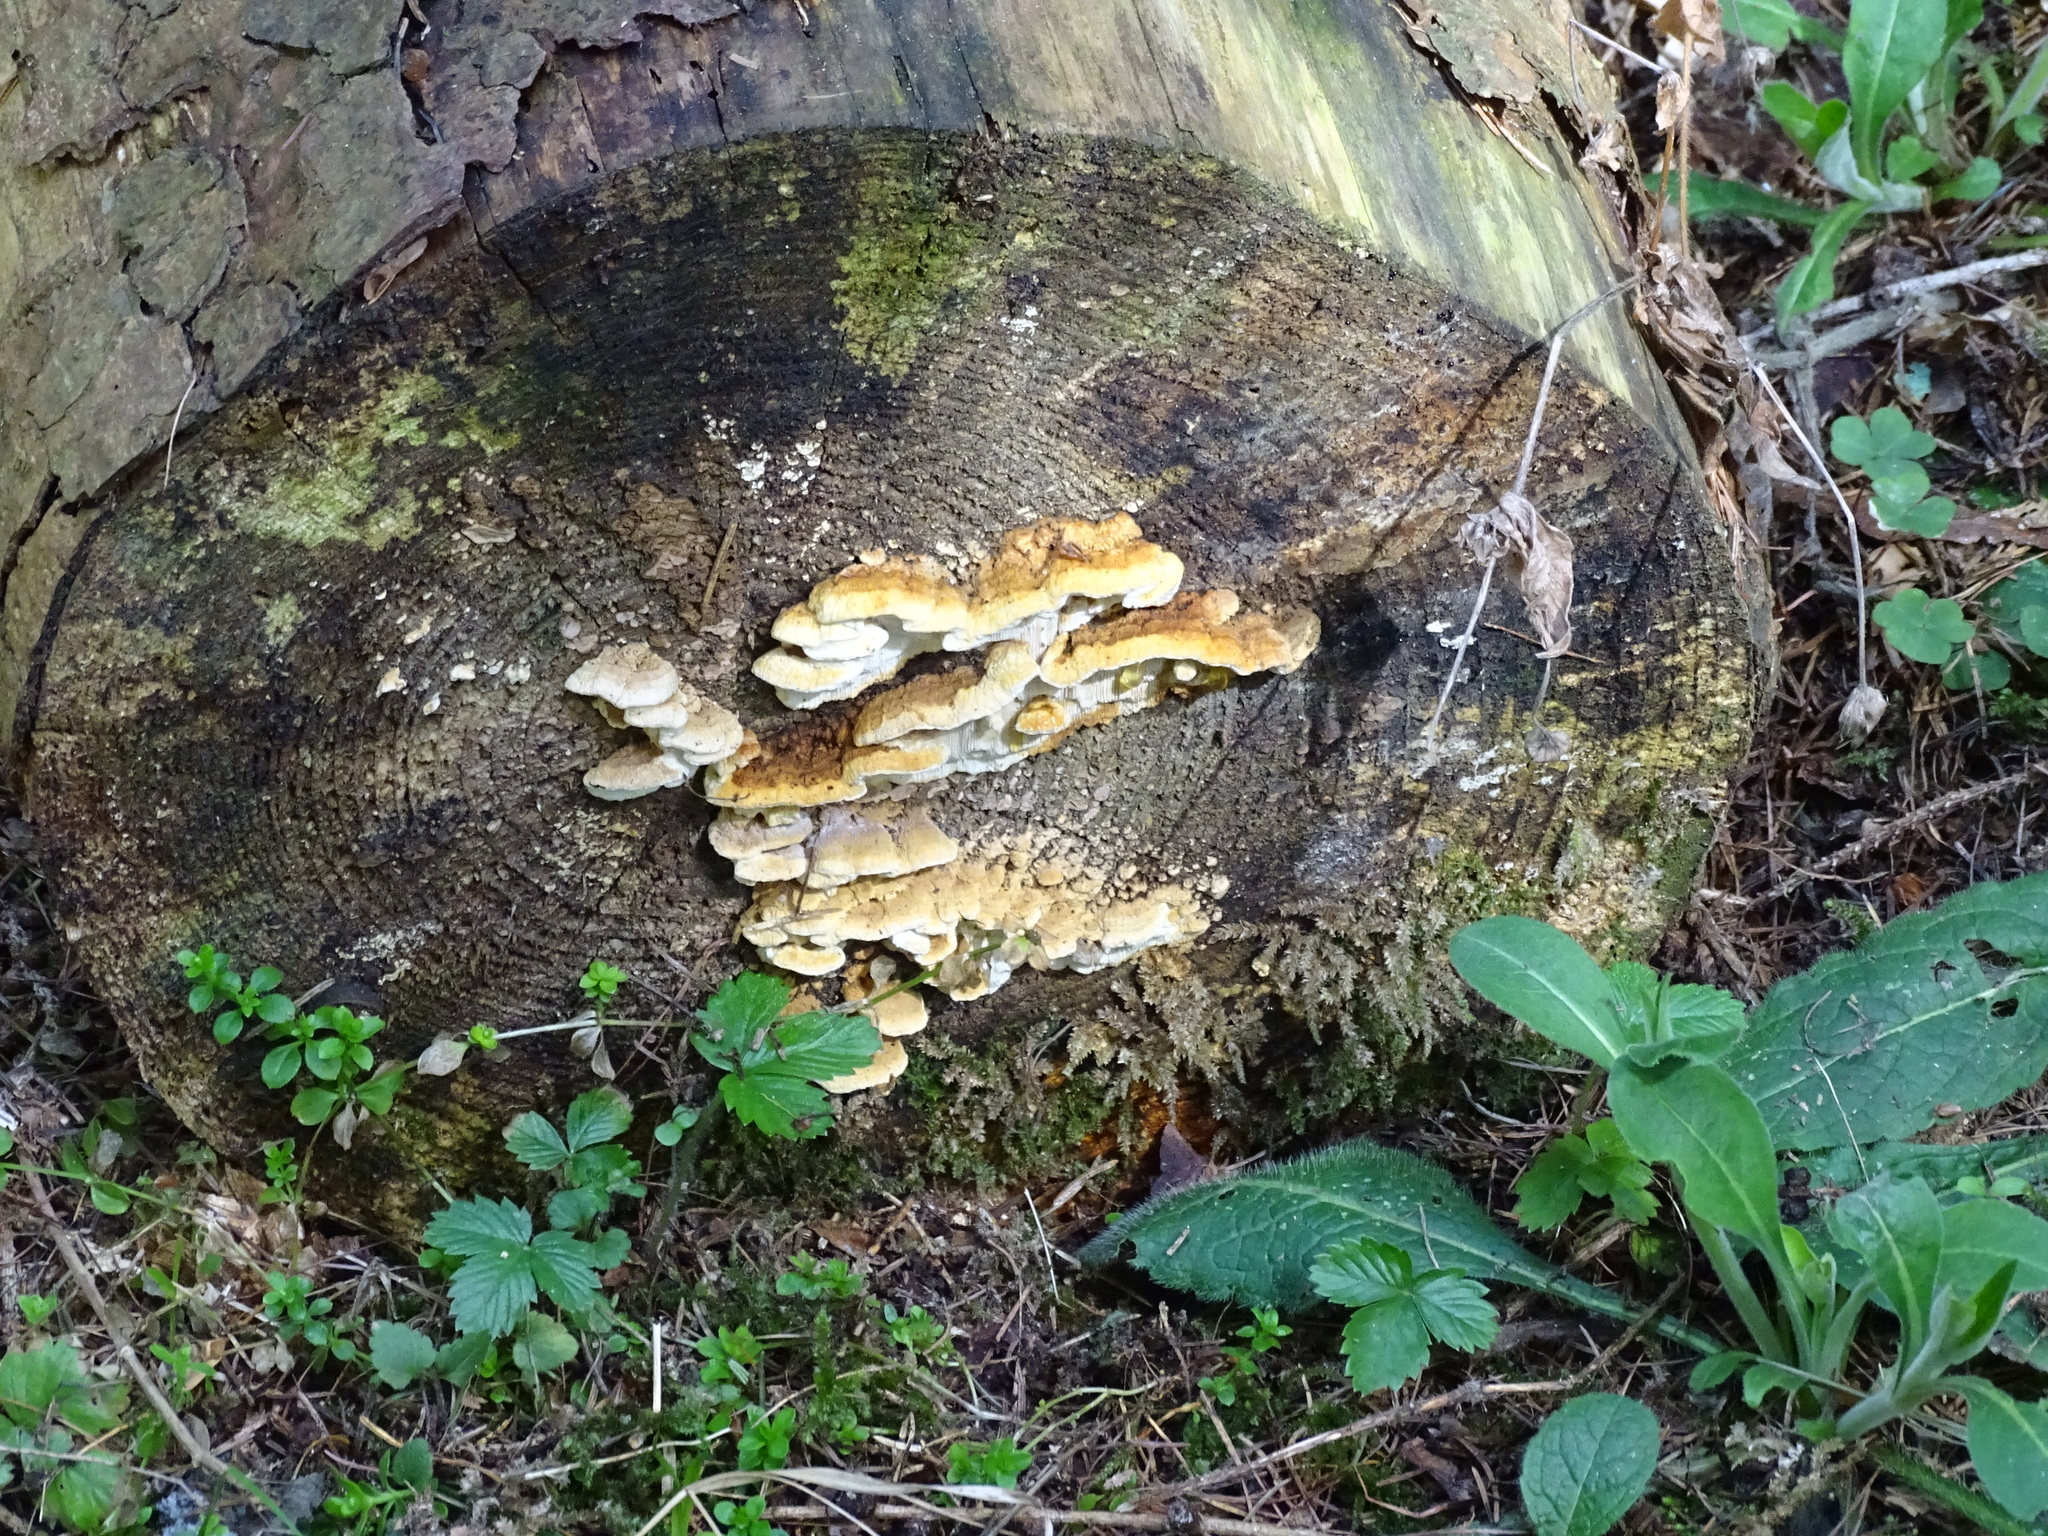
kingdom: Fungi
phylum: Basidiomycota
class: Agaricomycetes
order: Polyporales
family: Fomitopsidaceae
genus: Neoantrodia
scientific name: Neoantrodia serialis
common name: Serried porecrust
